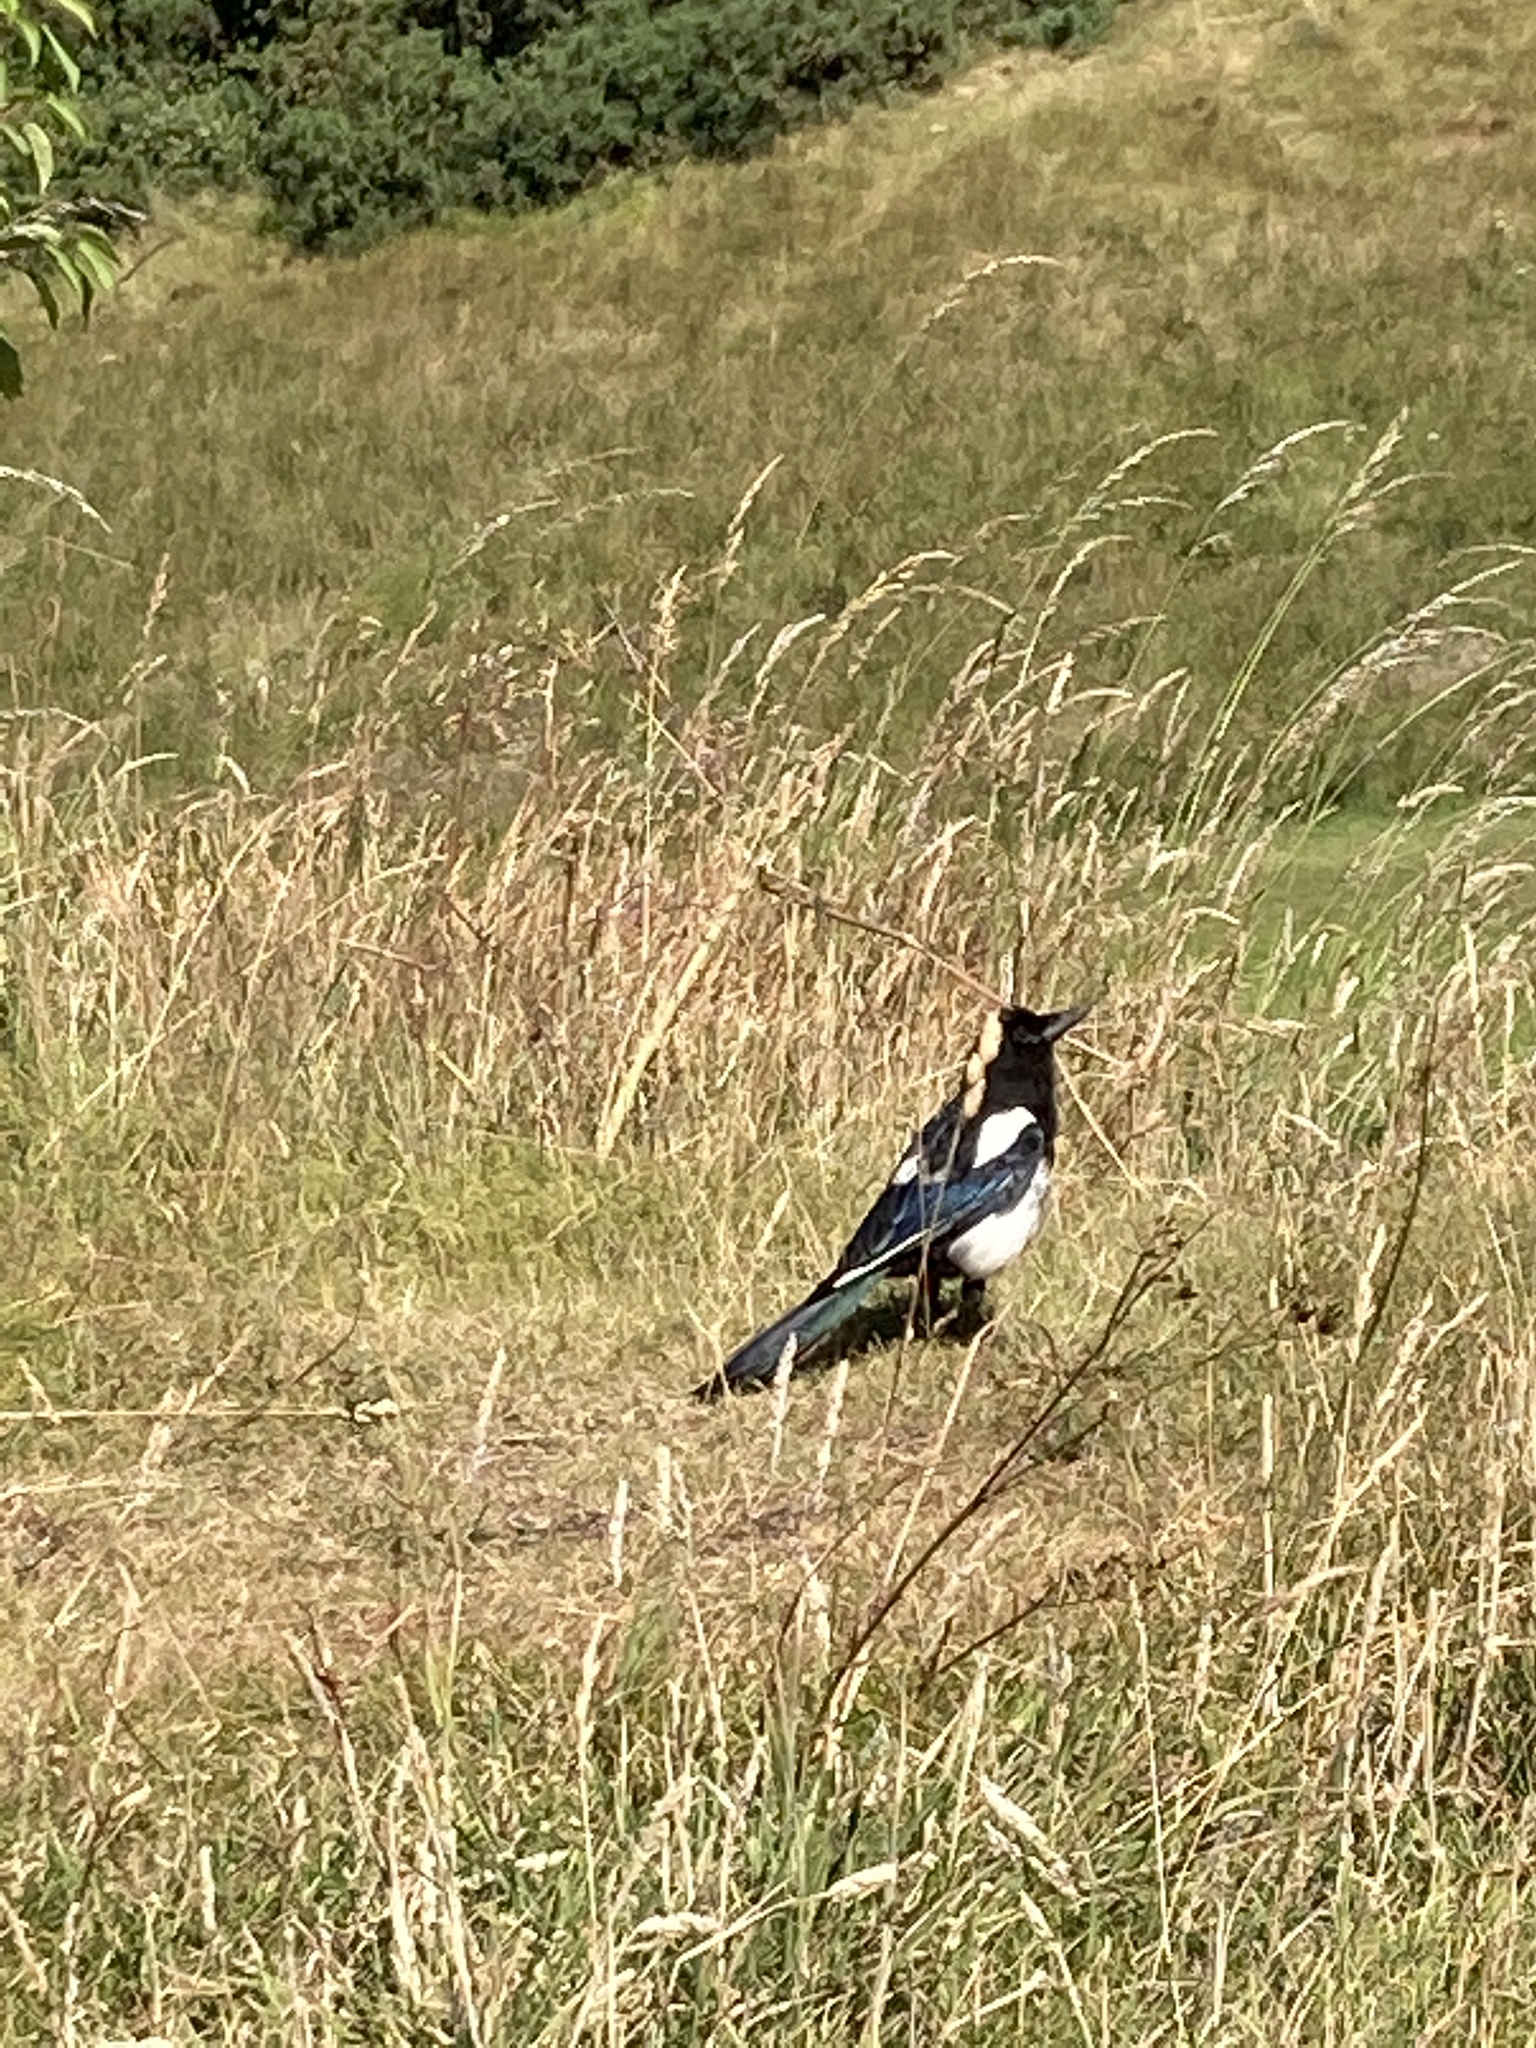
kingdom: Animalia
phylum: Chordata
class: Aves
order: Passeriformes
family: Corvidae
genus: Pica
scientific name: Pica pica
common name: Eurasian magpie
